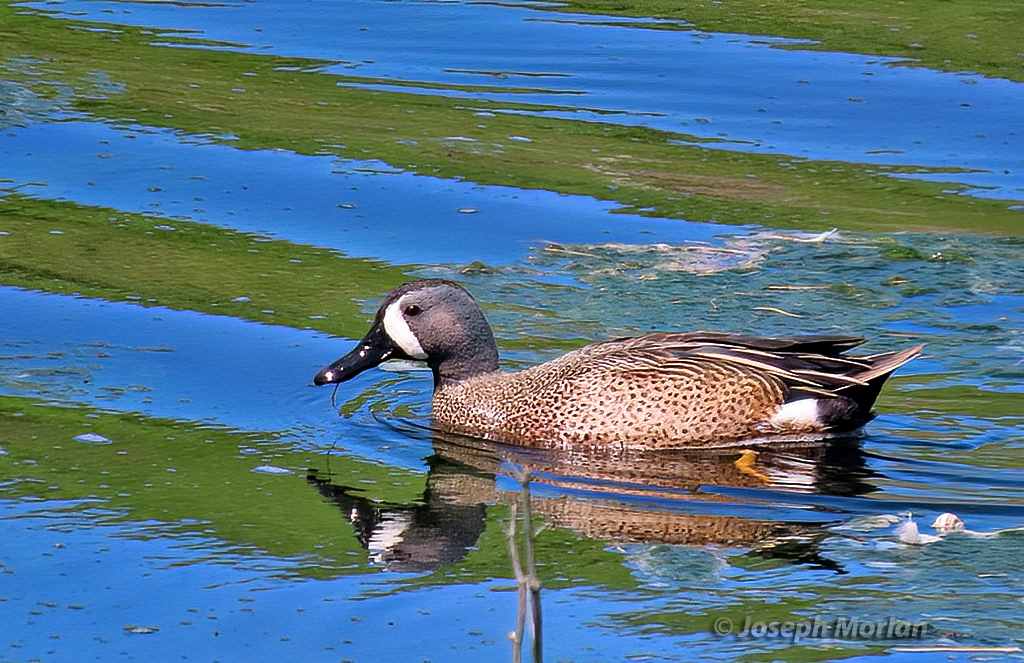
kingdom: Animalia
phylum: Chordata
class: Aves
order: Anseriformes
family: Anatidae
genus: Spatula
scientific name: Spatula discors
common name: Blue-winged teal
